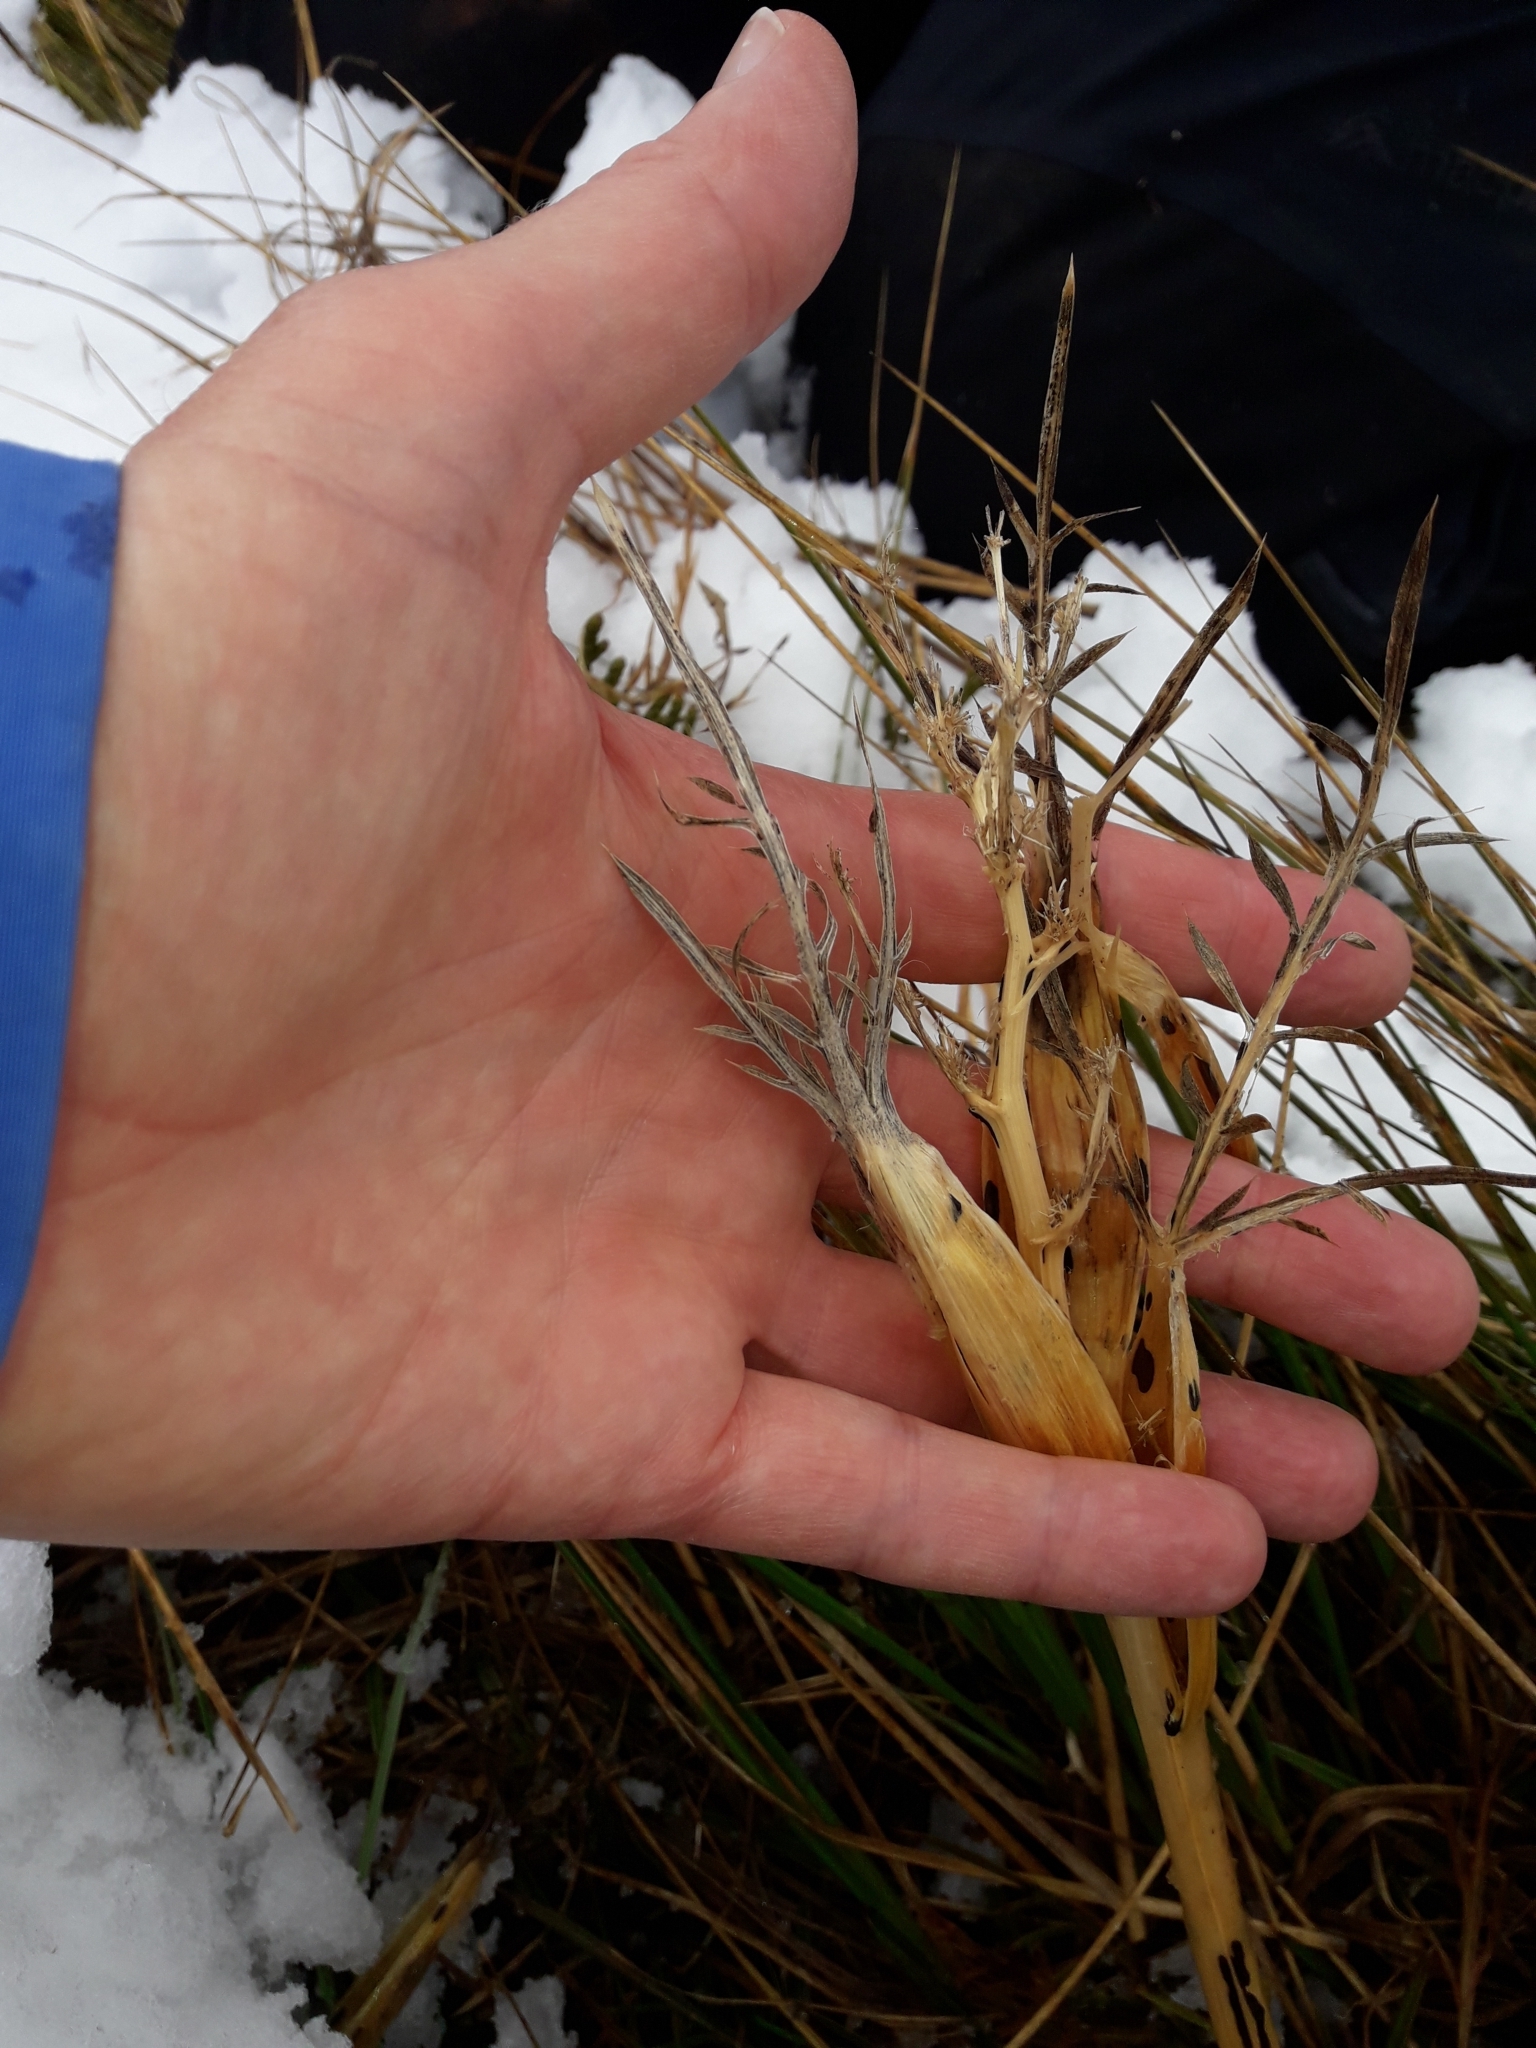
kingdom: Plantae
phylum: Tracheophyta
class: Magnoliopsida
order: Apiales
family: Apiaceae
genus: Aciphylla
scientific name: Aciphylla pinnatifida
